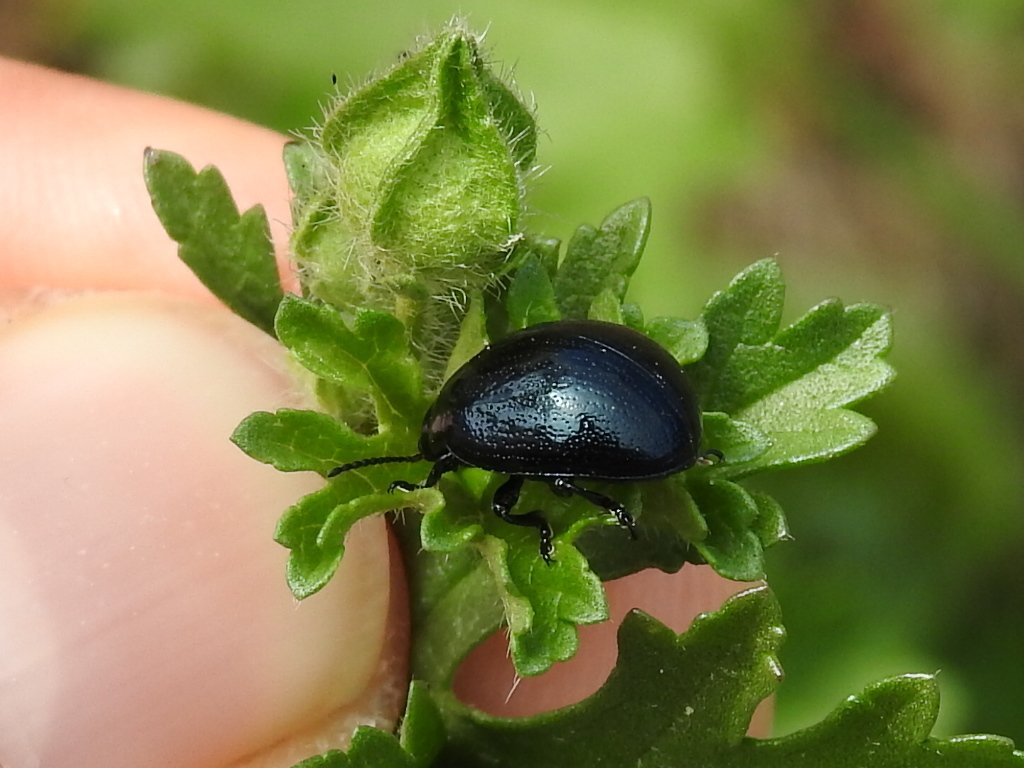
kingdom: Animalia
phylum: Arthropoda
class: Insecta
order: Coleoptera
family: Chrysomelidae
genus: Chrysolina
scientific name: Chrysolina haemoptera
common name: Plantain leaf beetle
